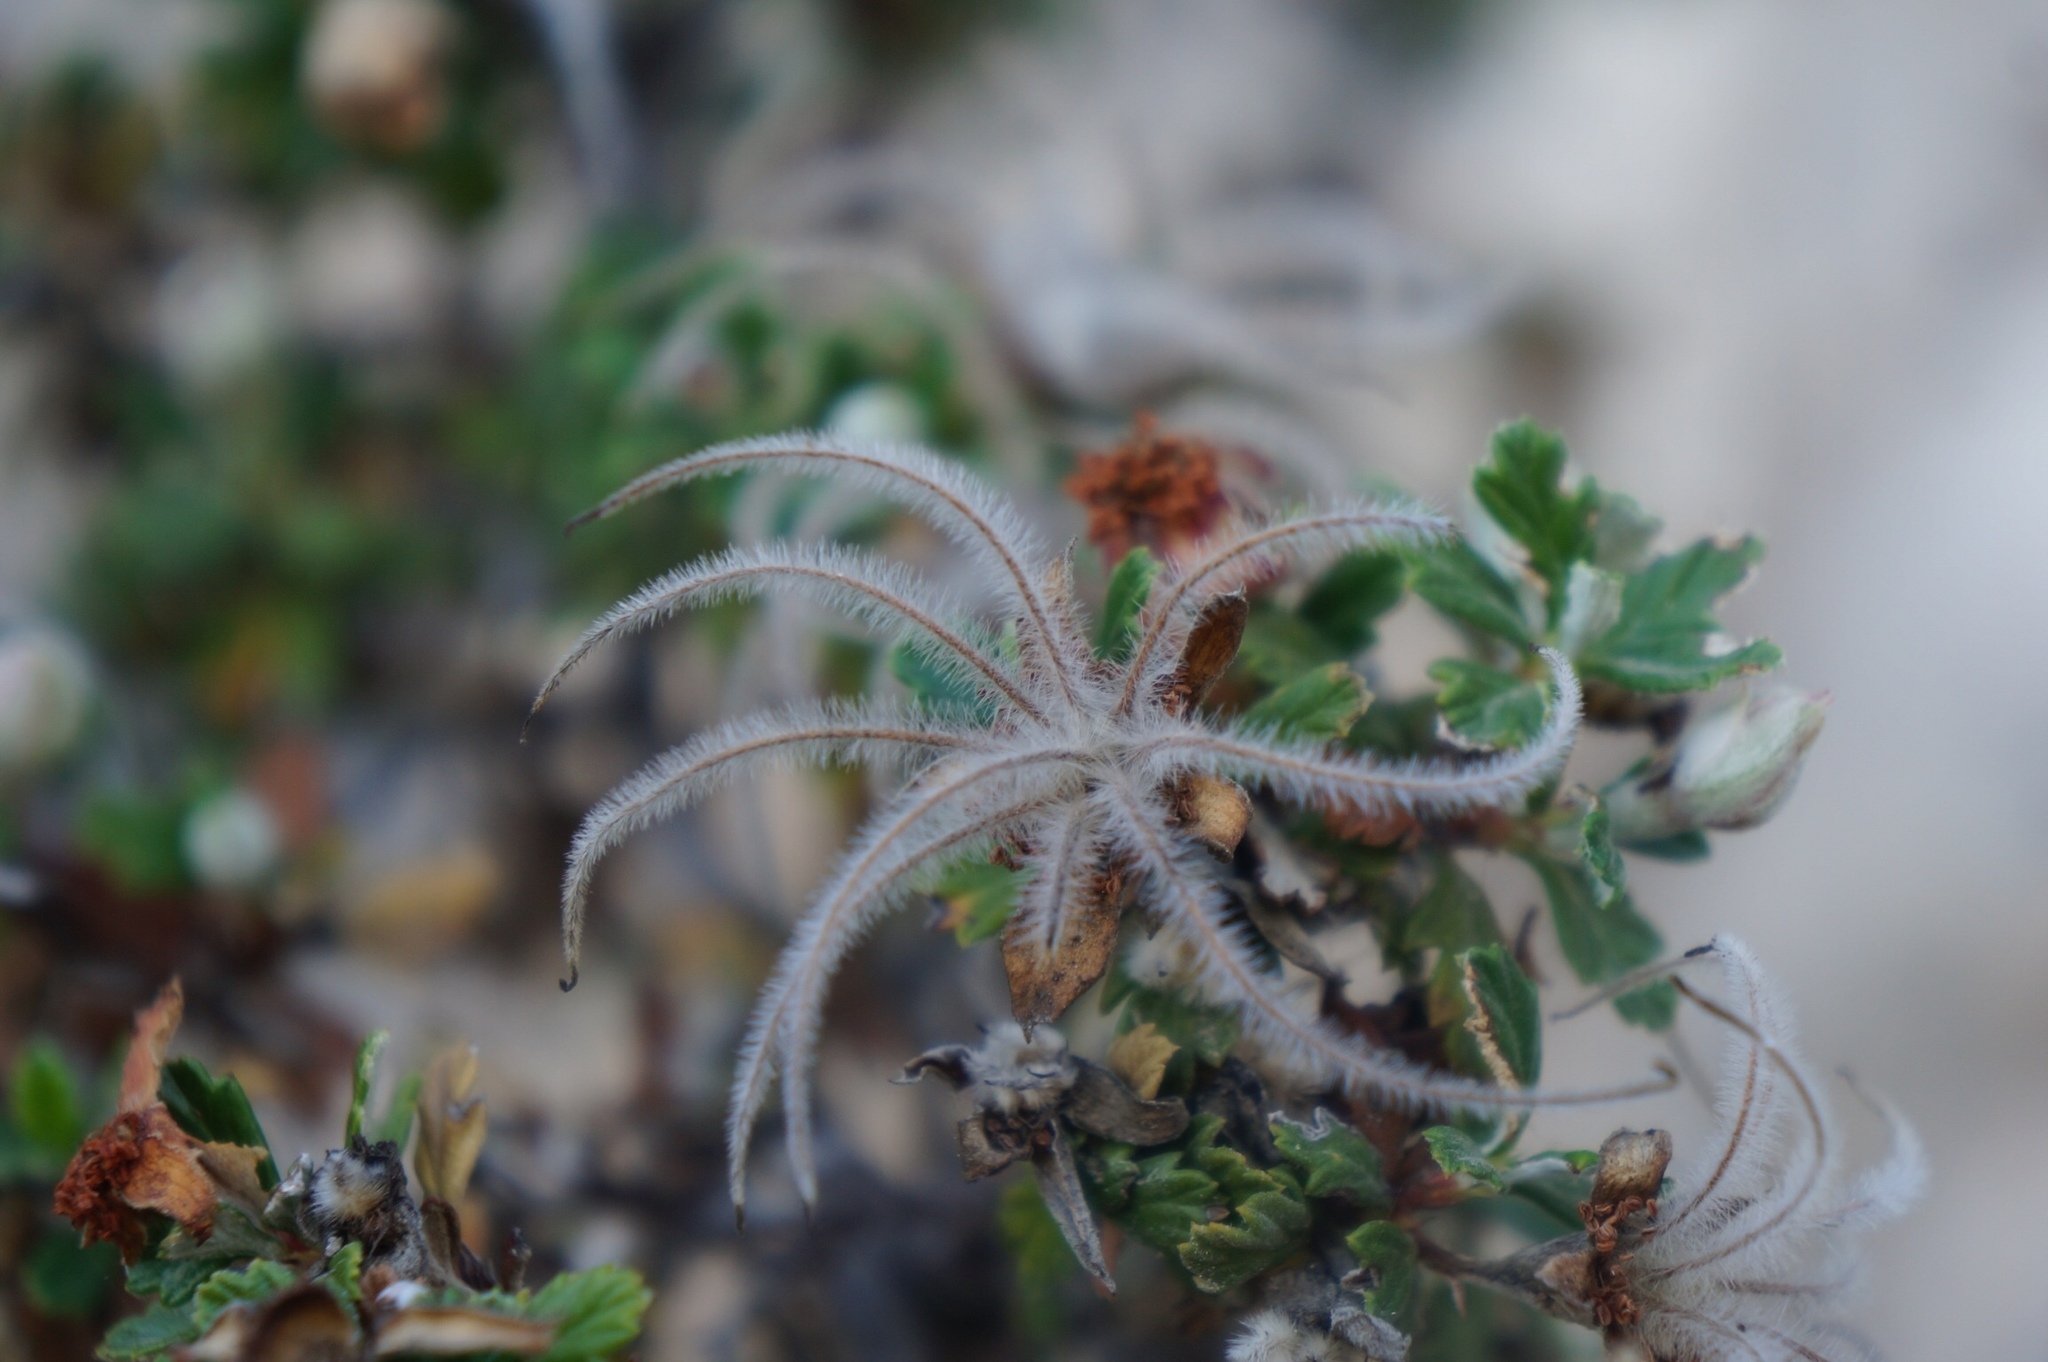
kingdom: Plantae
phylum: Tracheophyta
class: Magnoliopsida
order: Rosales
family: Rosaceae
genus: Purshia
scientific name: Purshia plicata
